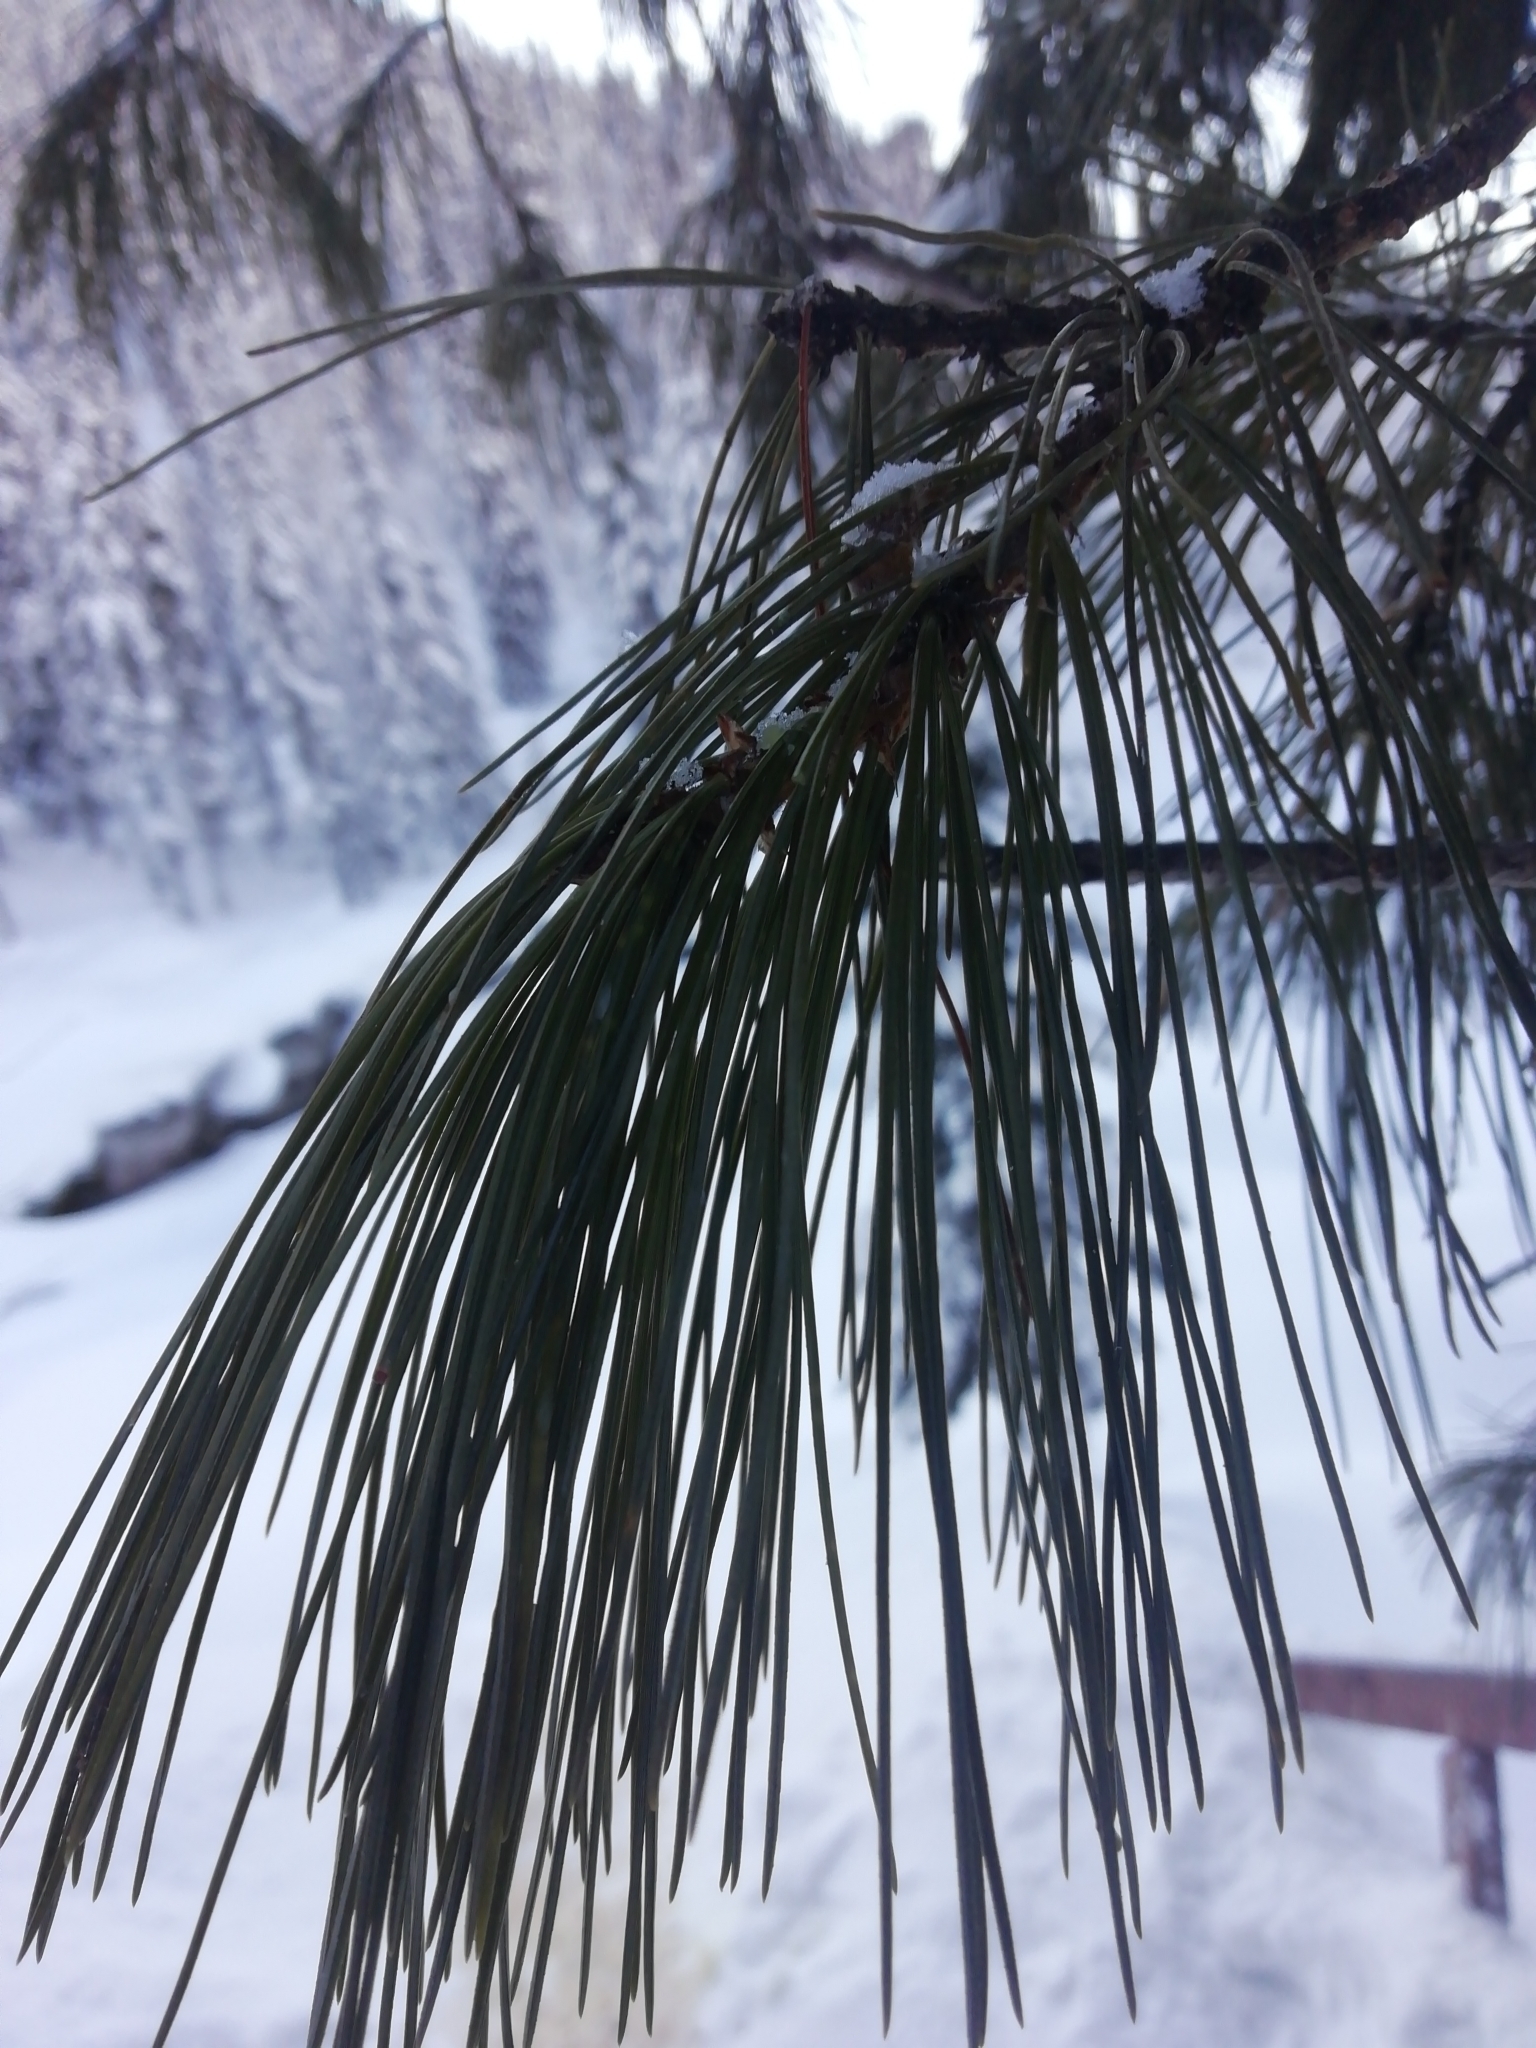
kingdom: Plantae
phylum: Tracheophyta
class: Pinopsida
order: Pinales
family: Pinaceae
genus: Pinus
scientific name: Pinus sibirica
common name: Siberian pine
